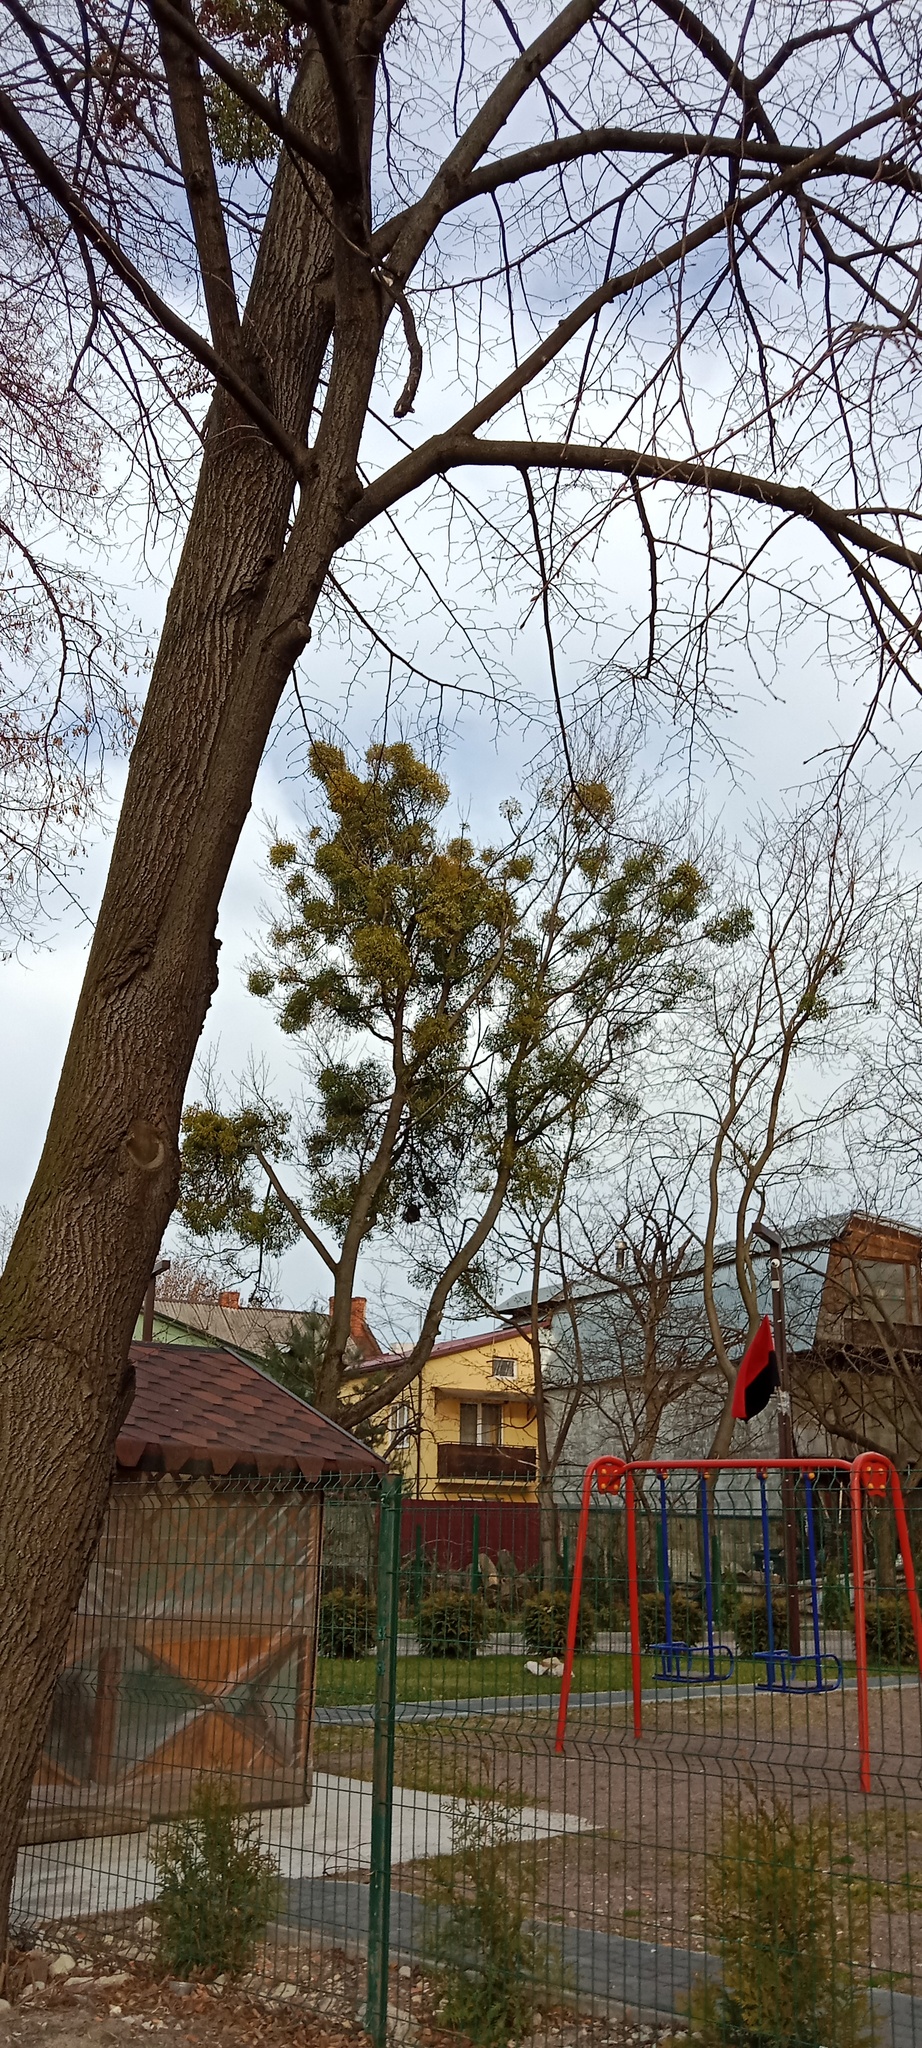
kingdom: Plantae
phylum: Tracheophyta
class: Magnoliopsida
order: Santalales
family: Viscaceae
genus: Viscum
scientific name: Viscum album
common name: Mistletoe
